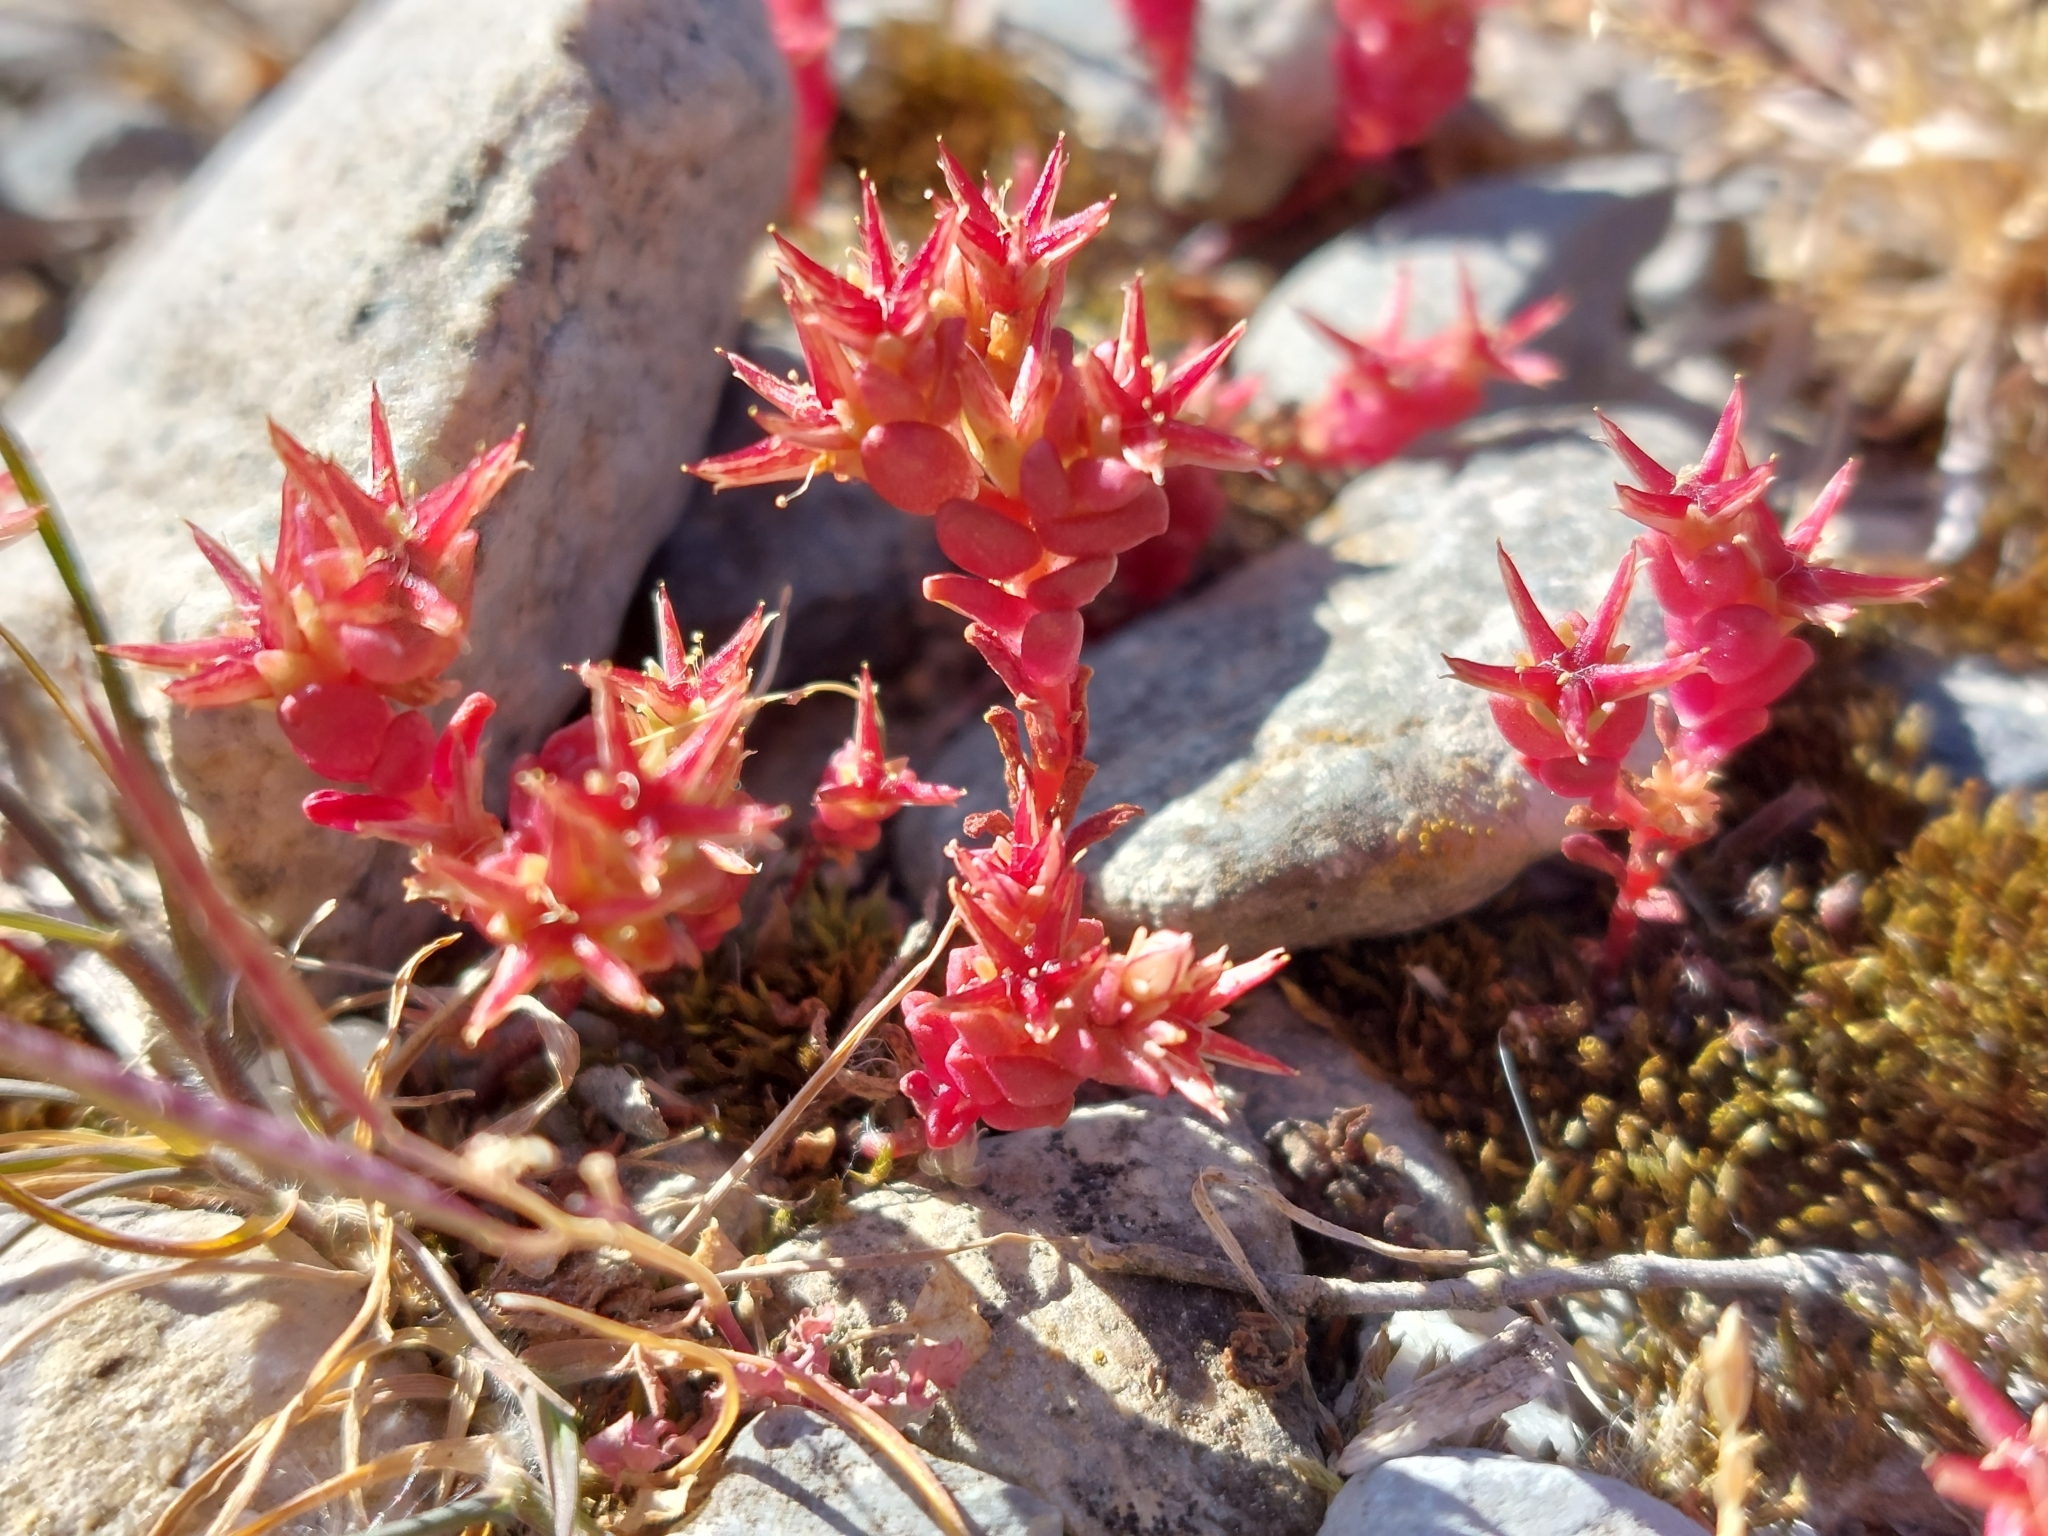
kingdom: Plantae
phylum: Tracheophyta
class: Magnoliopsida
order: Saxifragales
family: Crassulaceae
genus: Sedum
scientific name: Sedum cespitosum
